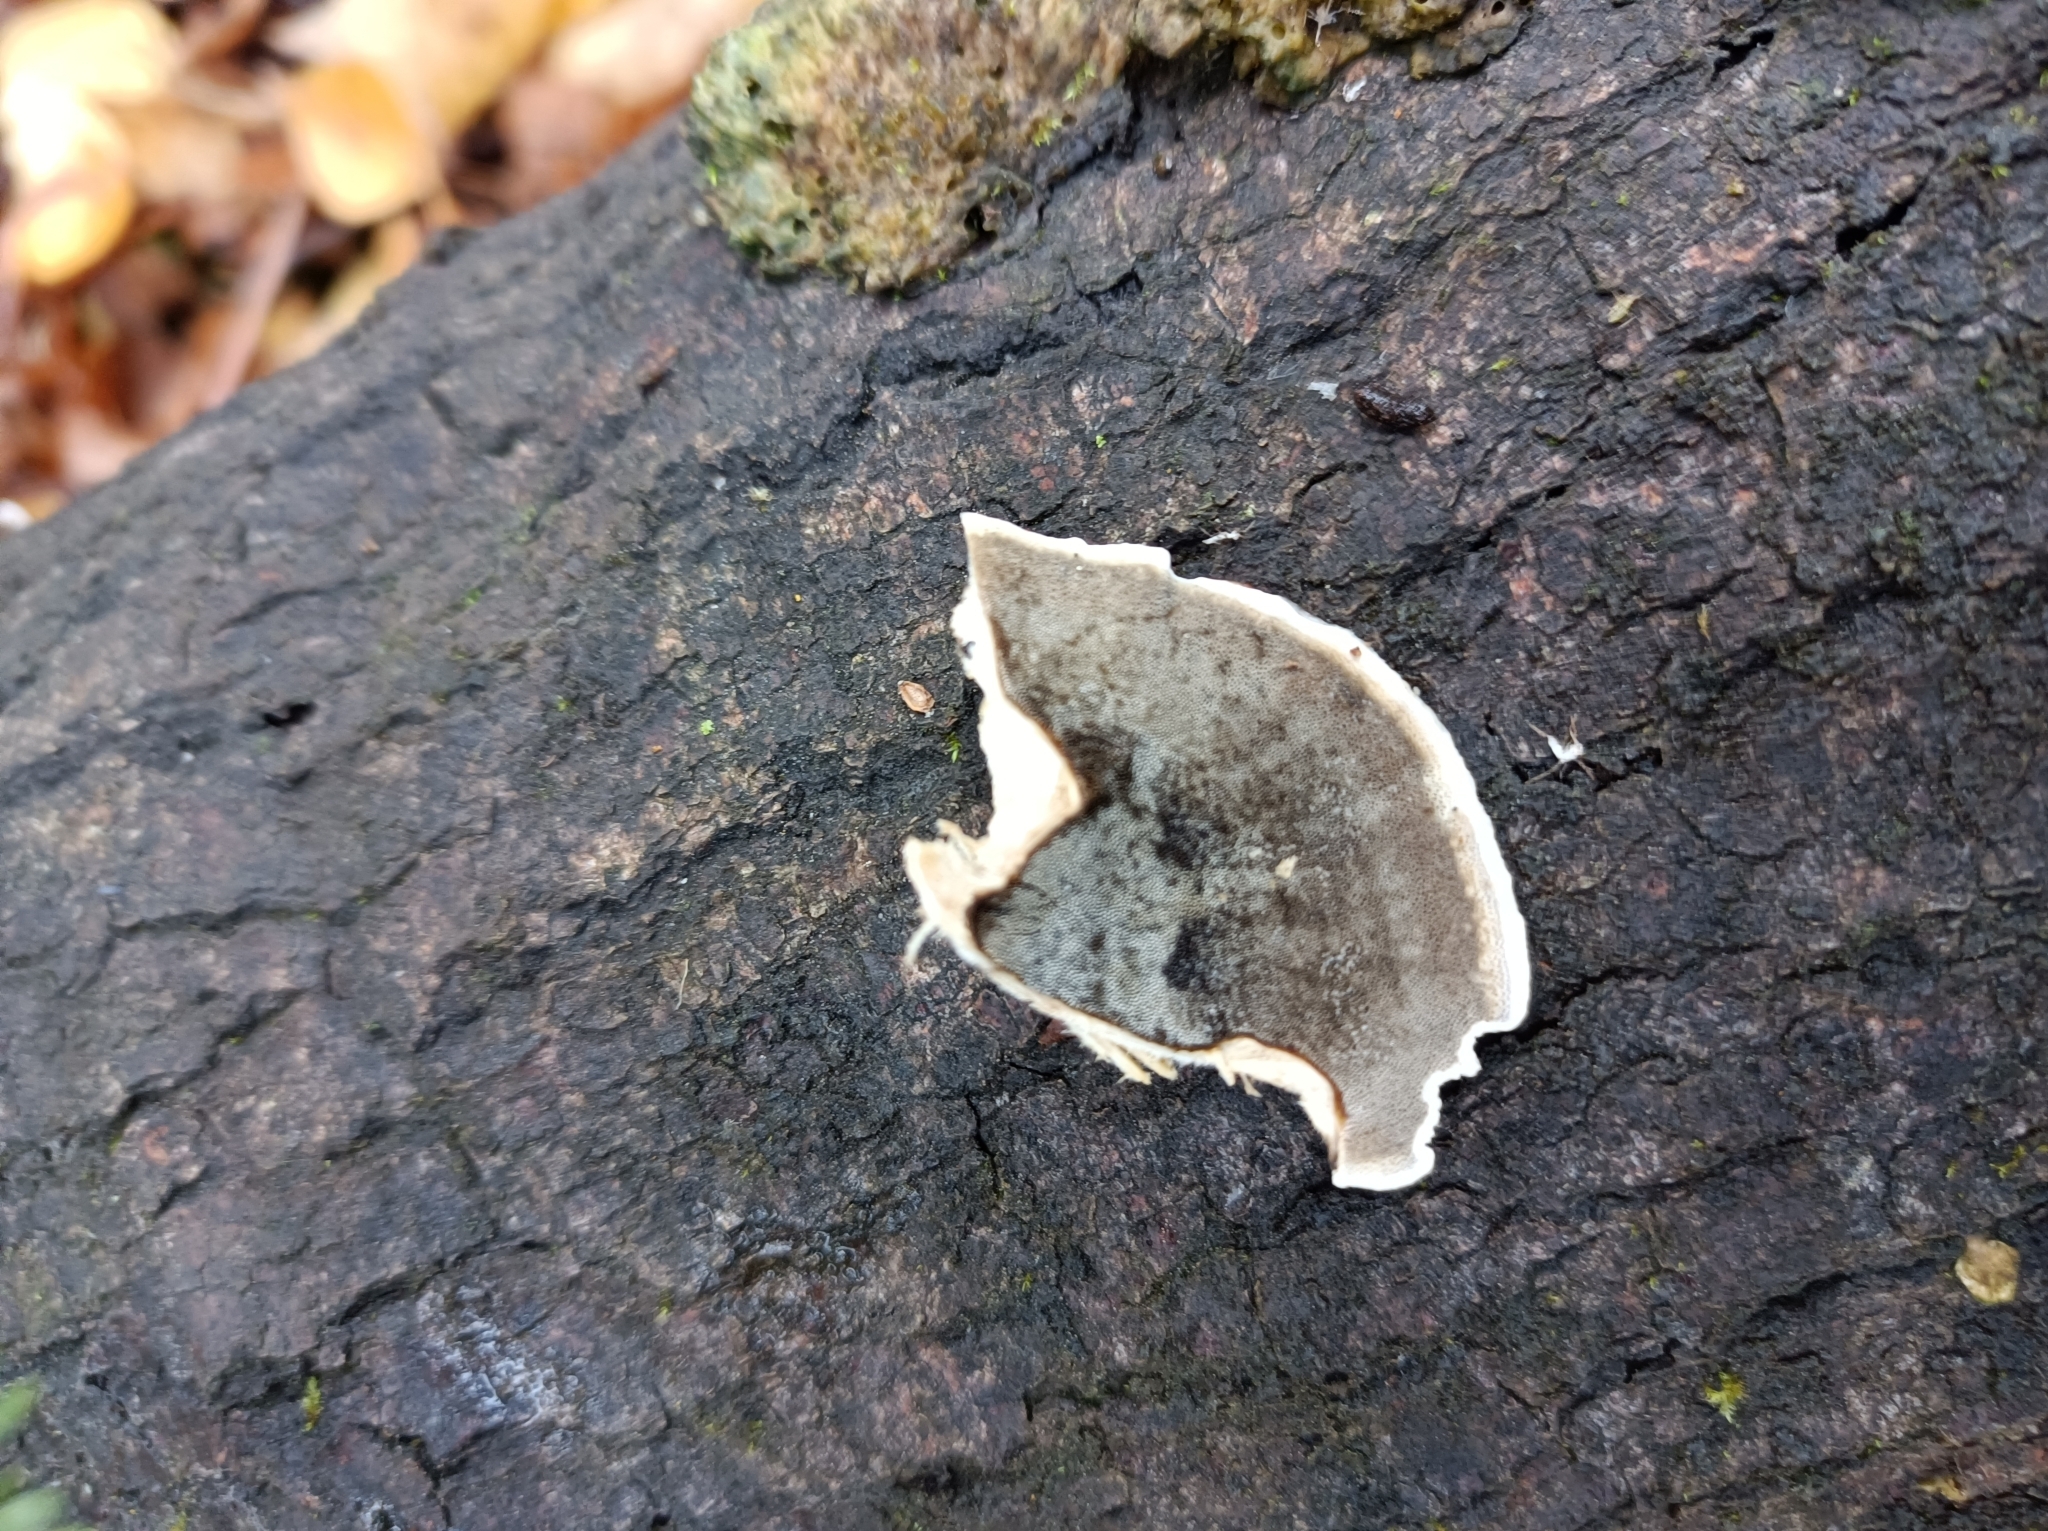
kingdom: Fungi
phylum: Basidiomycota
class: Agaricomycetes
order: Polyporales
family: Phanerochaetaceae
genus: Bjerkandera
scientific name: Bjerkandera adusta
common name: Smoky bracket
